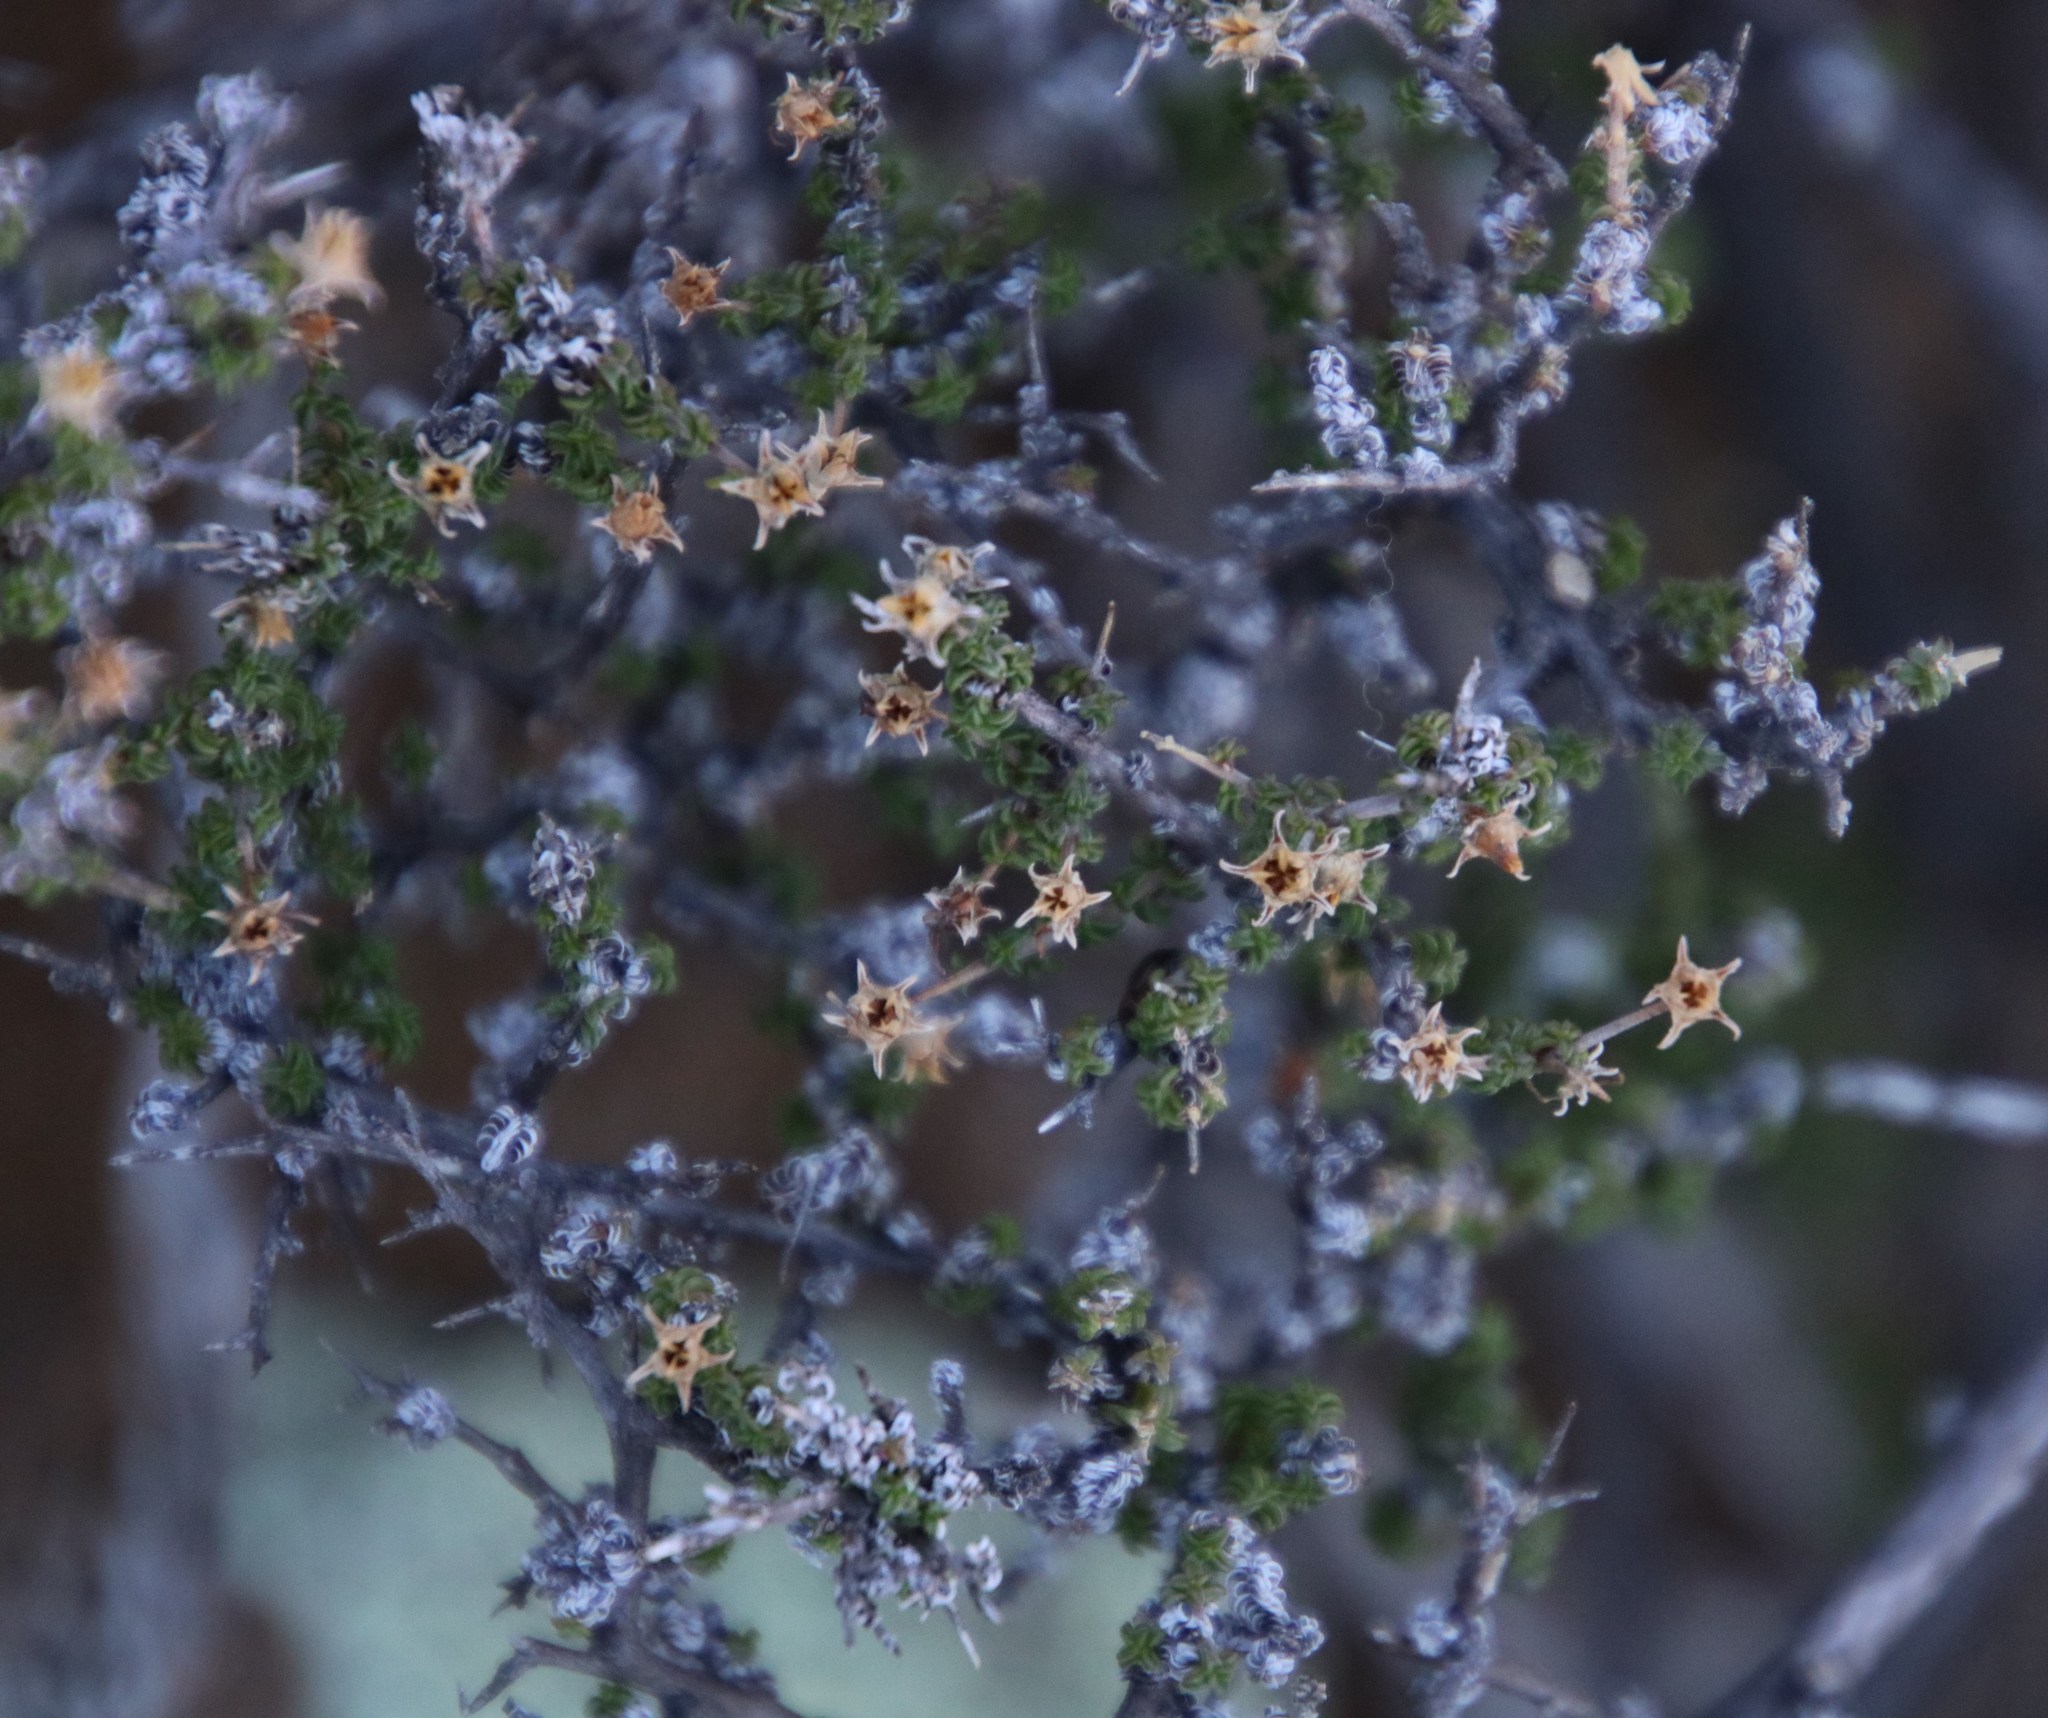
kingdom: Plantae
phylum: Tracheophyta
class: Magnoliopsida
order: Asterales
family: Campanulaceae
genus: Wahlenbergia
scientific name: Wahlenbergia nodosa
